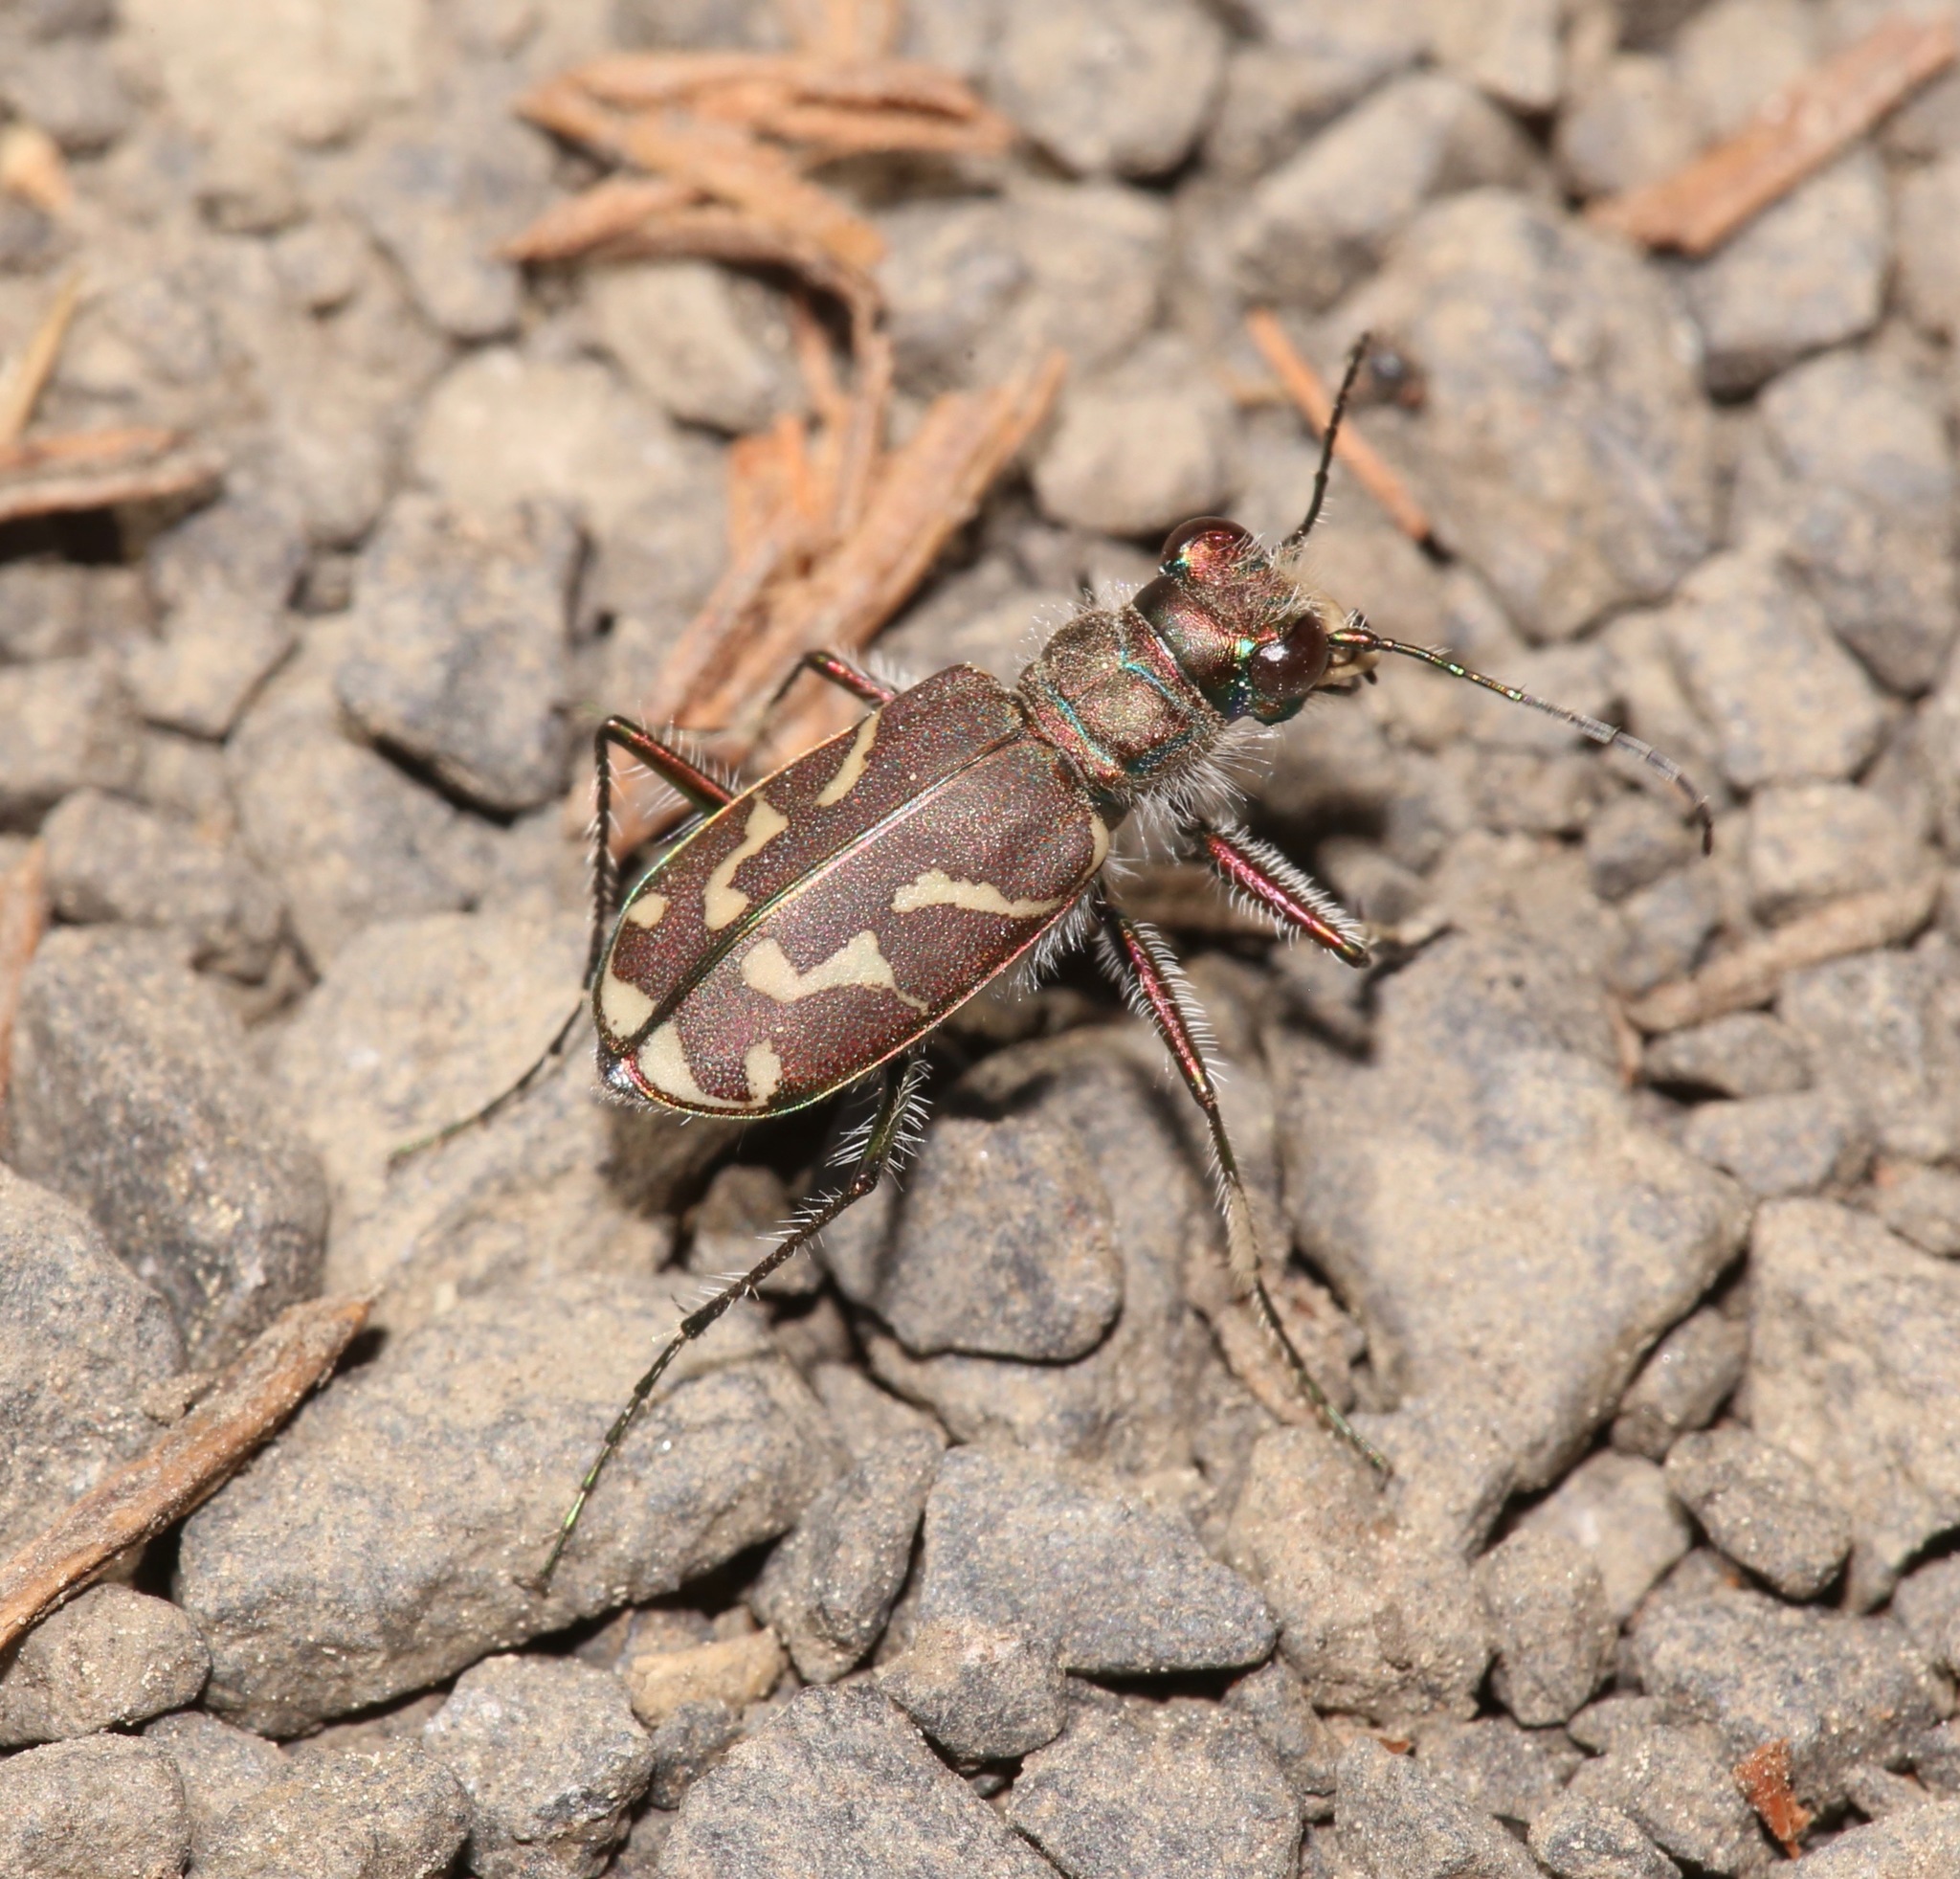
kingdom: Animalia
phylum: Arthropoda
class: Insecta
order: Coleoptera
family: Carabidae
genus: Cicindela
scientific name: Cicindela tranquebarica
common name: Oblique-lined tiger beetle
